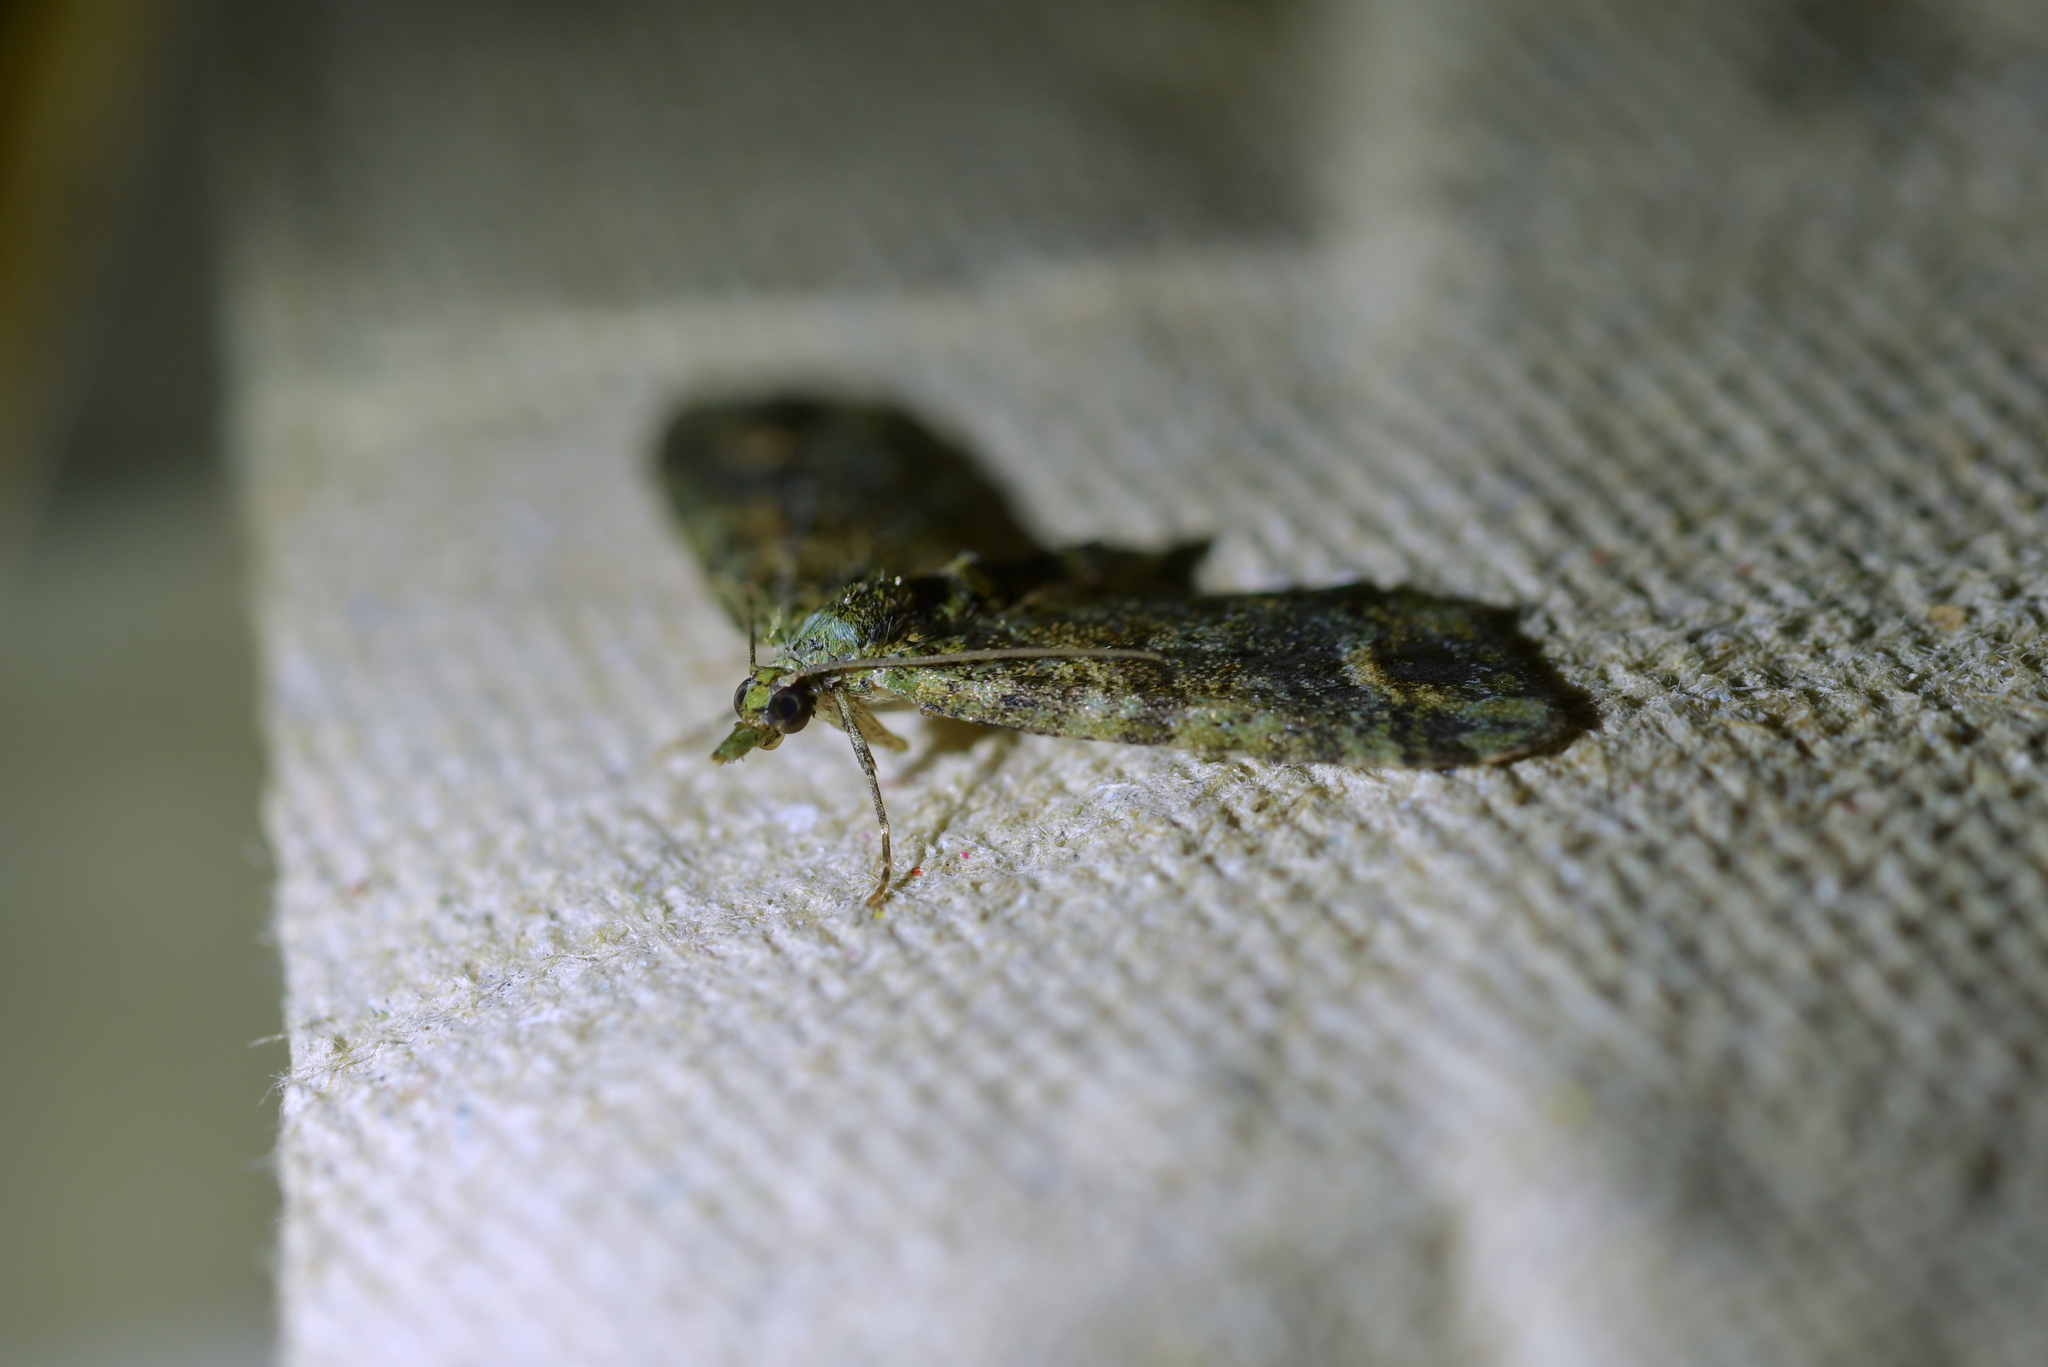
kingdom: Animalia
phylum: Arthropoda
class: Insecta
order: Lepidoptera
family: Geometridae
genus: Idaea
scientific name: Idaea mutanda
